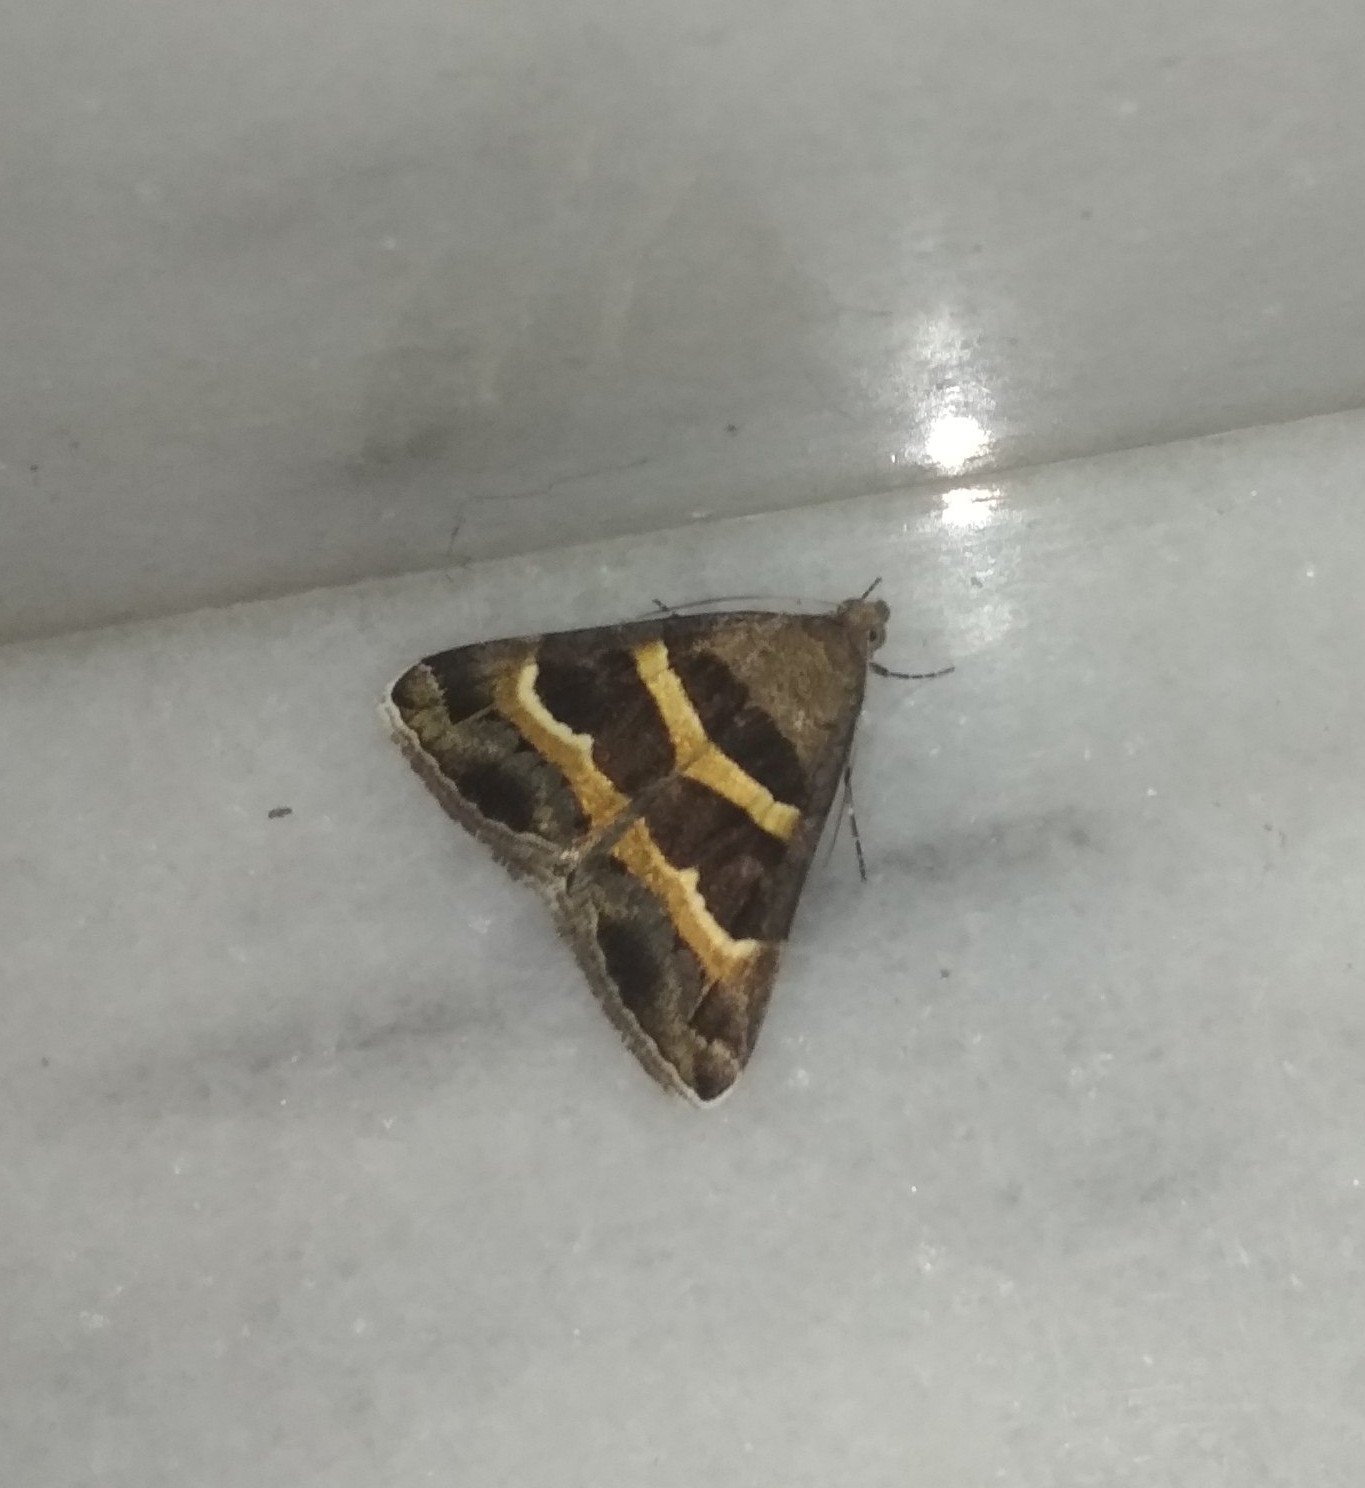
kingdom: Animalia
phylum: Arthropoda
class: Insecta
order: Lepidoptera
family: Erebidae
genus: Grammodes
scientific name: Grammodes stolida
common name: Geometrician
